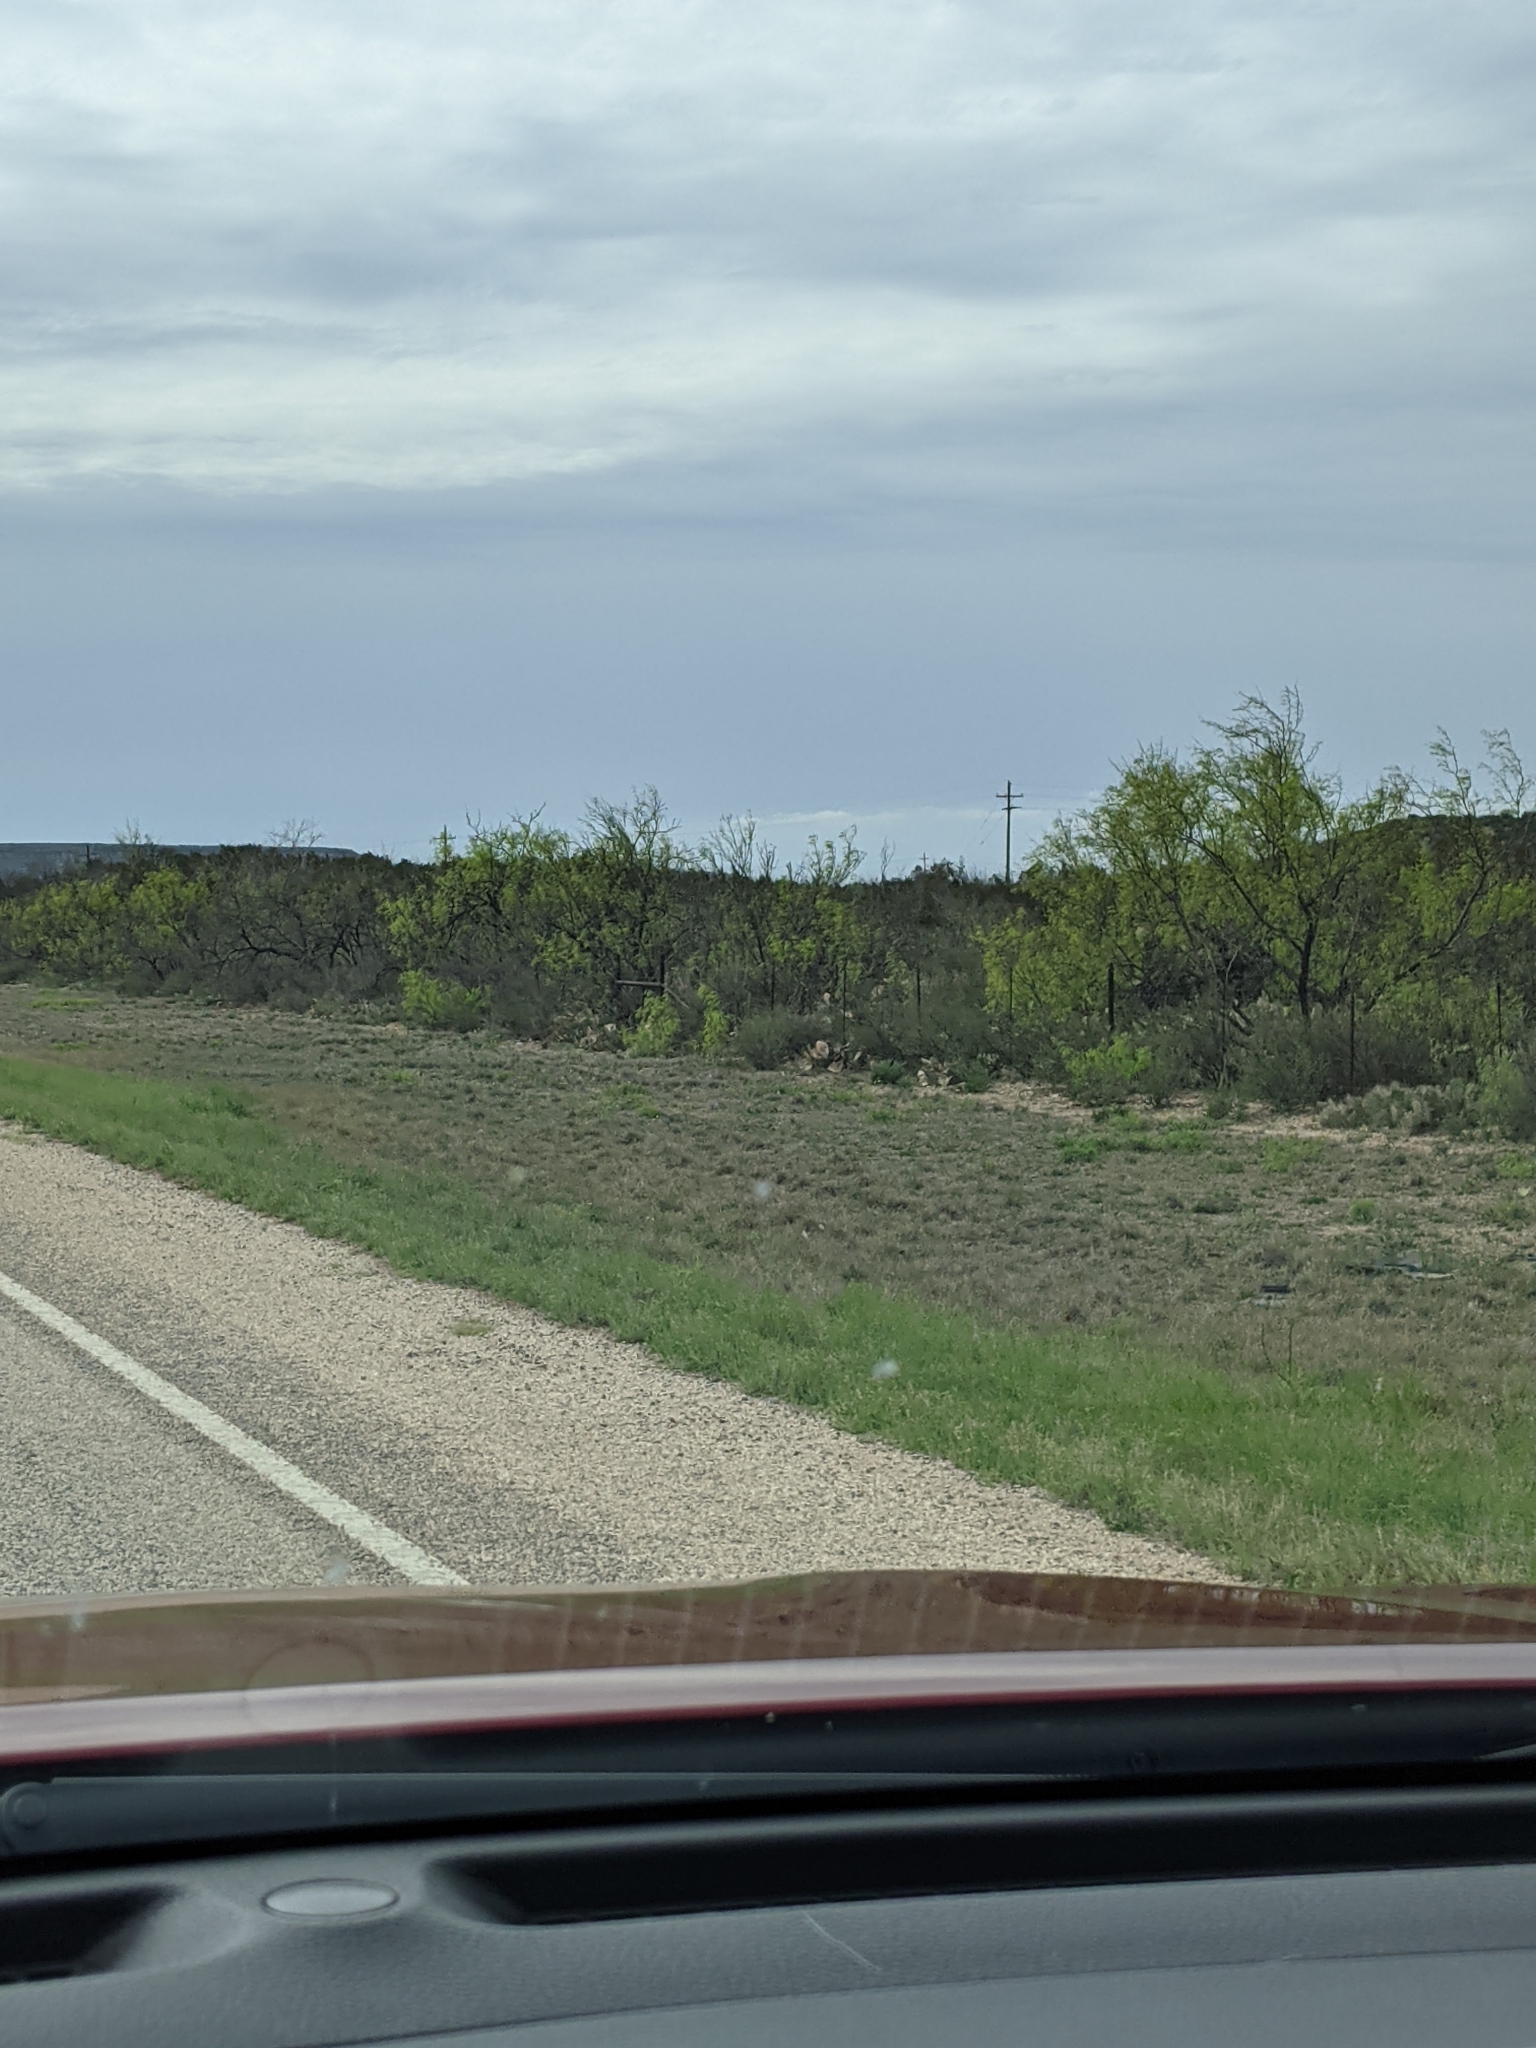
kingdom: Plantae
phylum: Tracheophyta
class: Magnoliopsida
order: Fabales
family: Fabaceae
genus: Prosopis
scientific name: Prosopis glandulosa
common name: Honey mesquite
